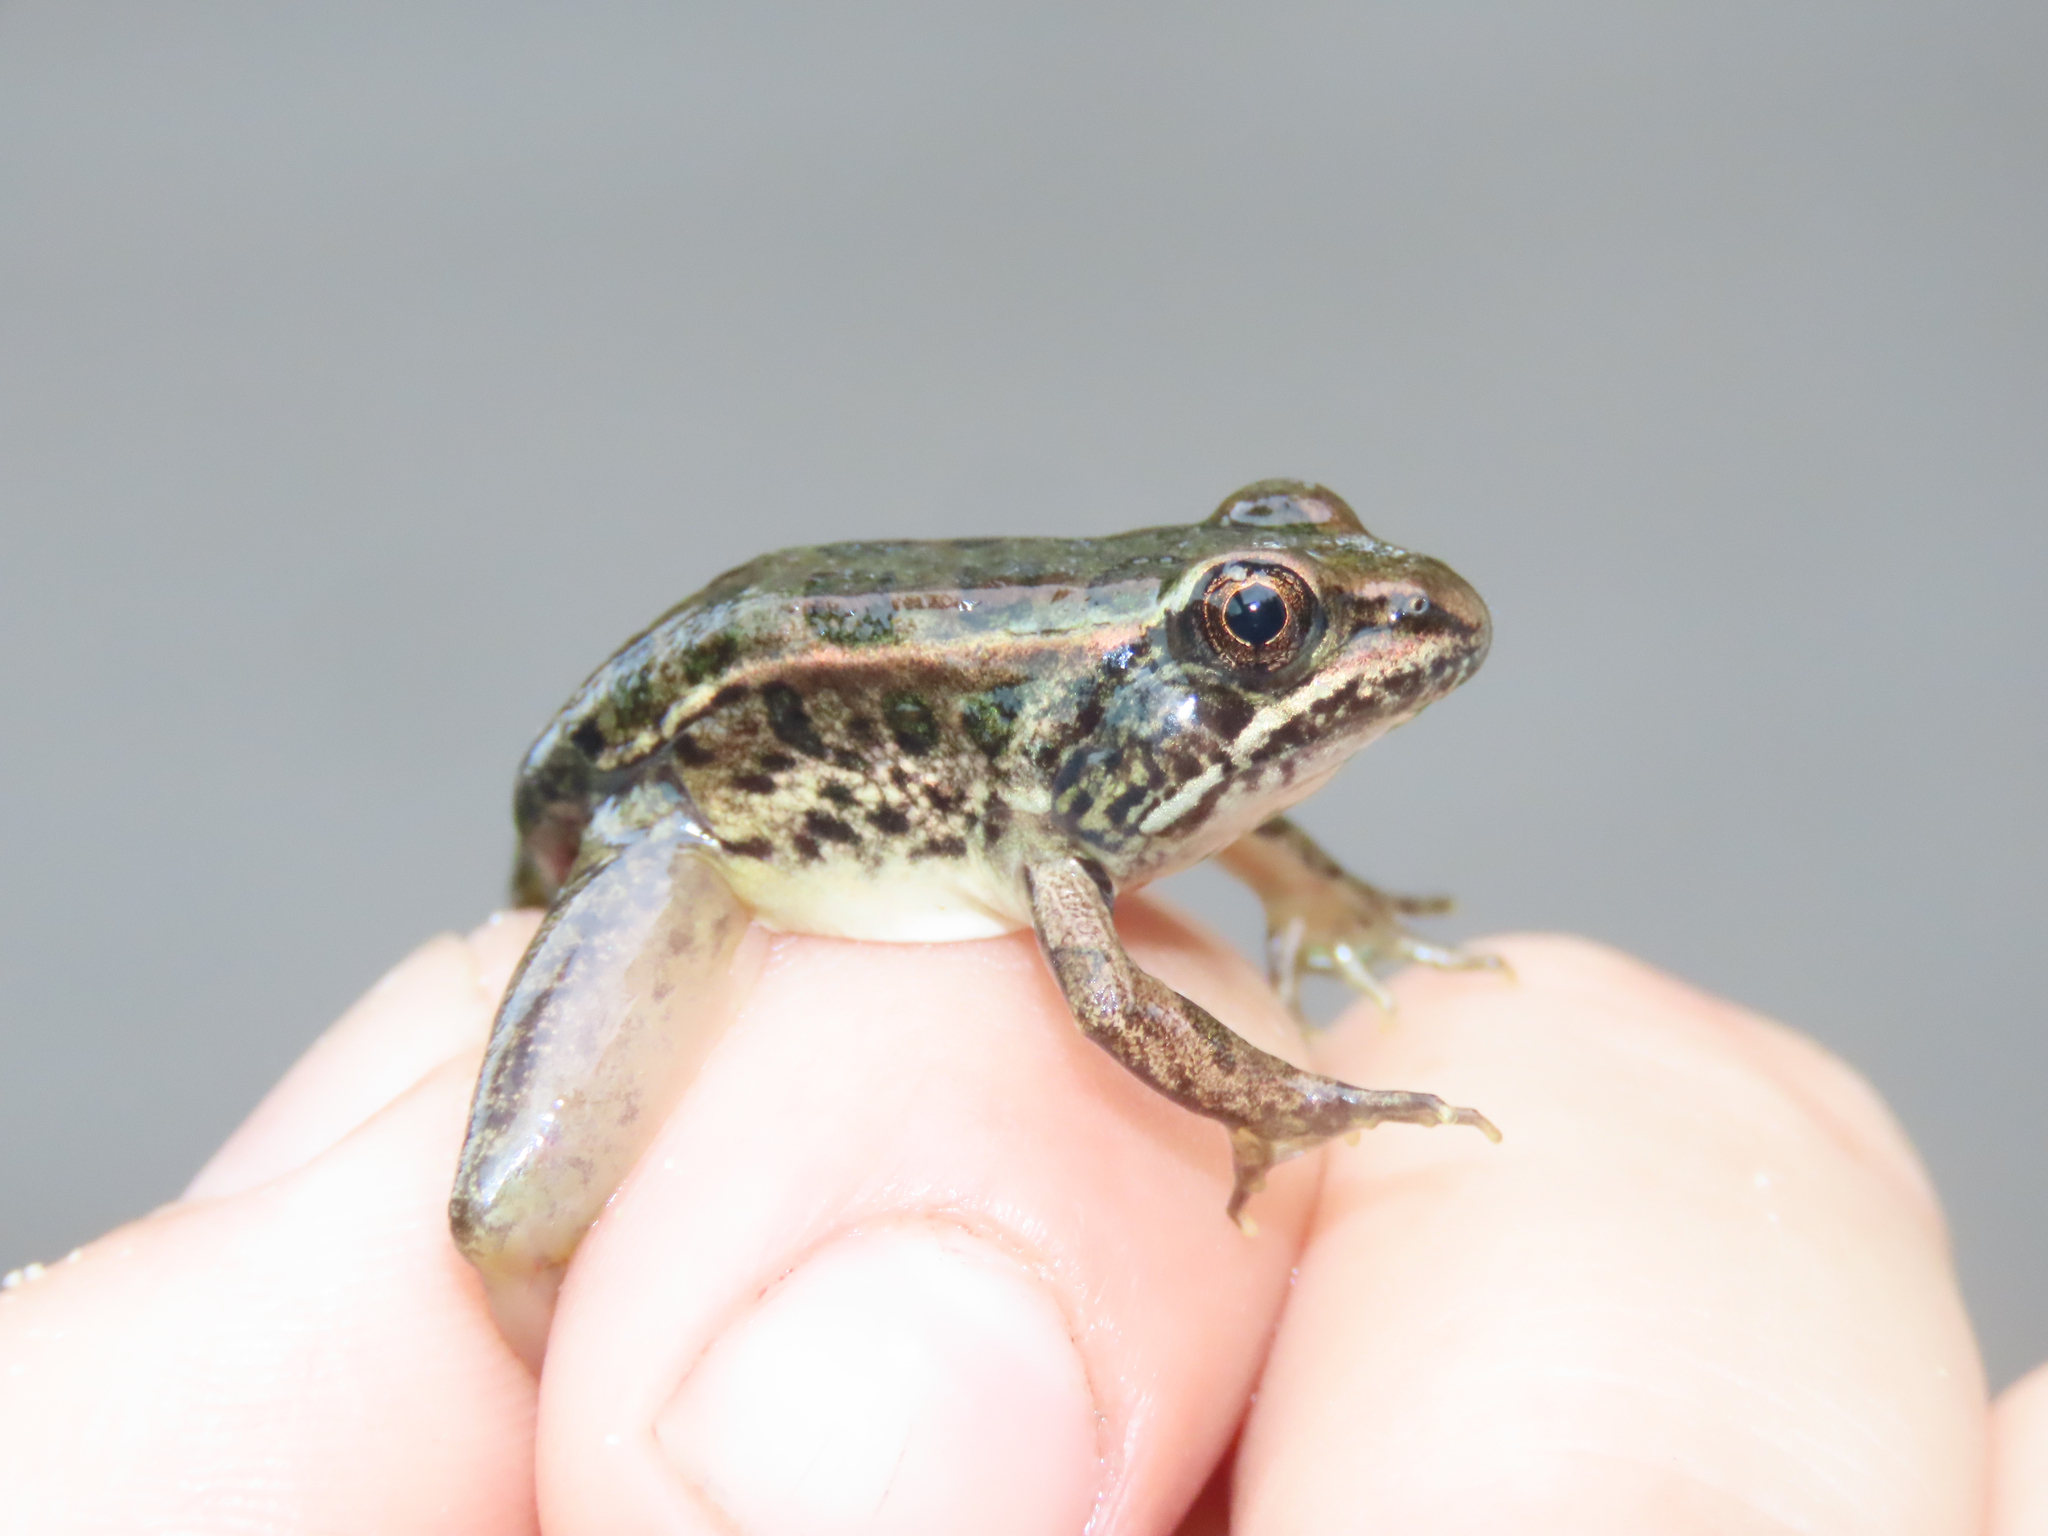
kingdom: Animalia
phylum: Chordata
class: Amphibia
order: Anura
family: Ranidae
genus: Lithobates
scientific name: Lithobates palustris
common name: Pickerel frog
